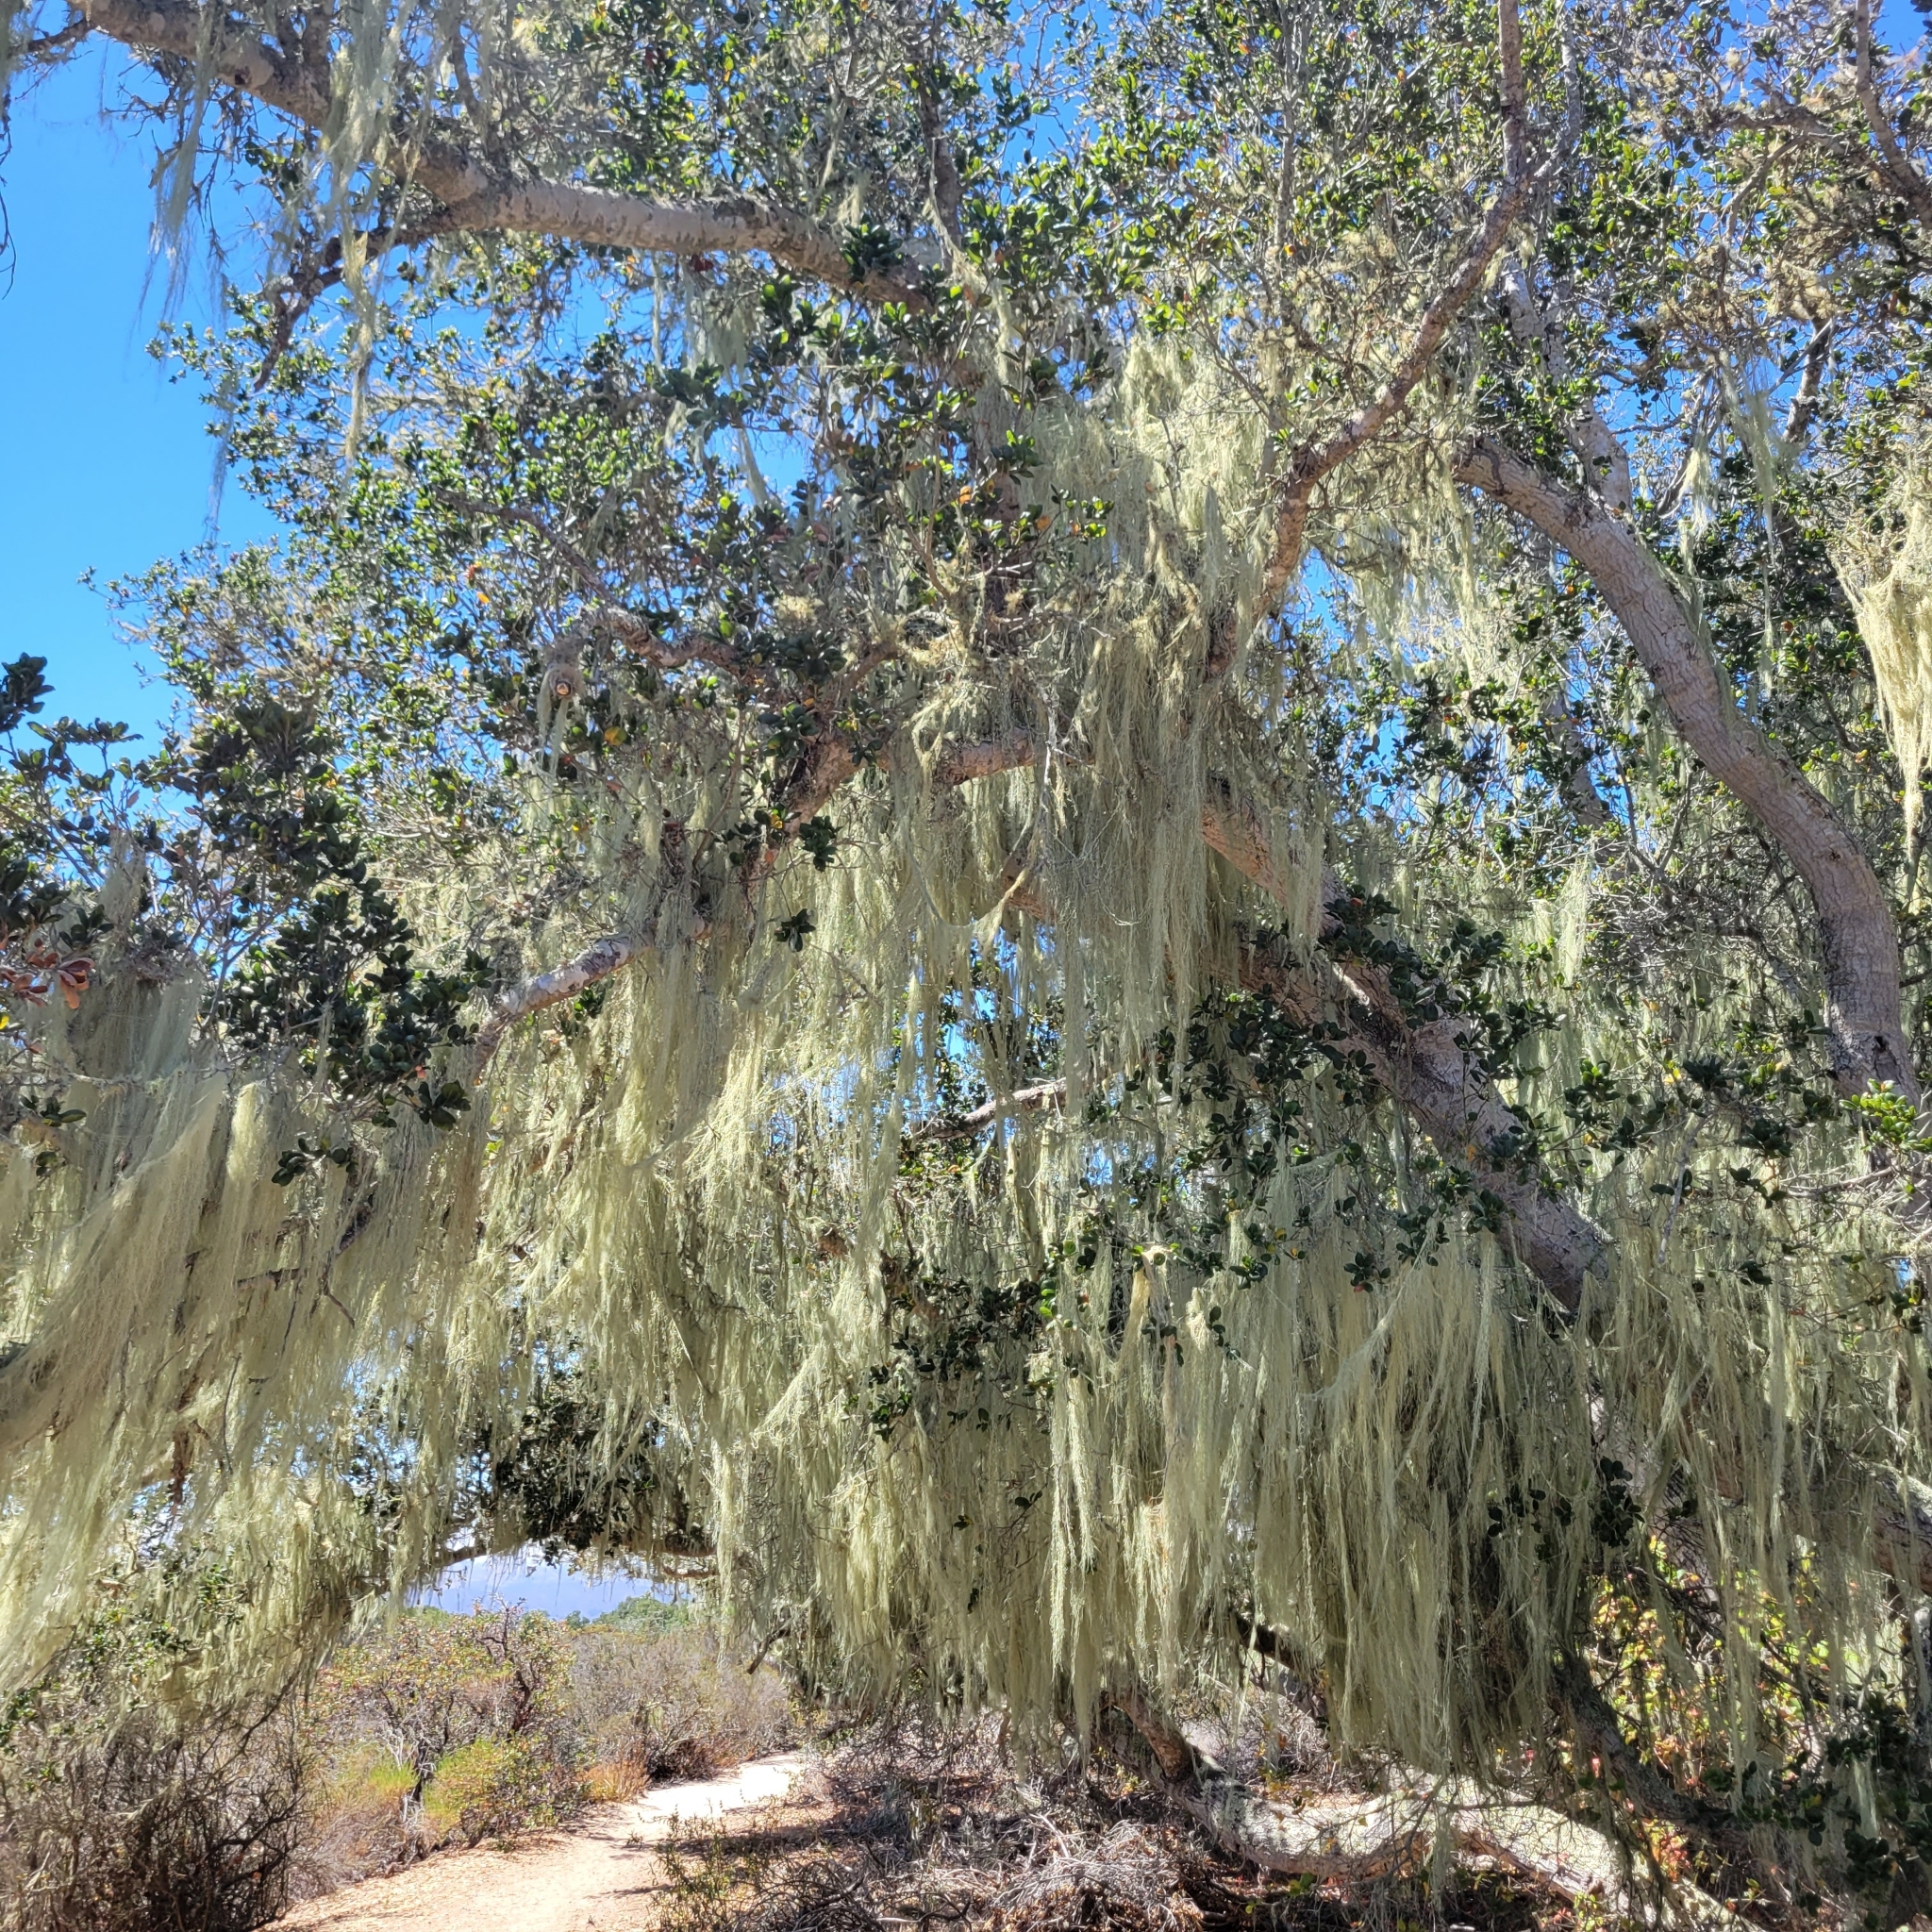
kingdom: Fungi
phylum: Ascomycota
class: Lecanoromycetes
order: Lecanorales
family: Ramalinaceae
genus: Ramalina
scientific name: Ramalina menziesii
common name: Lace lichen
